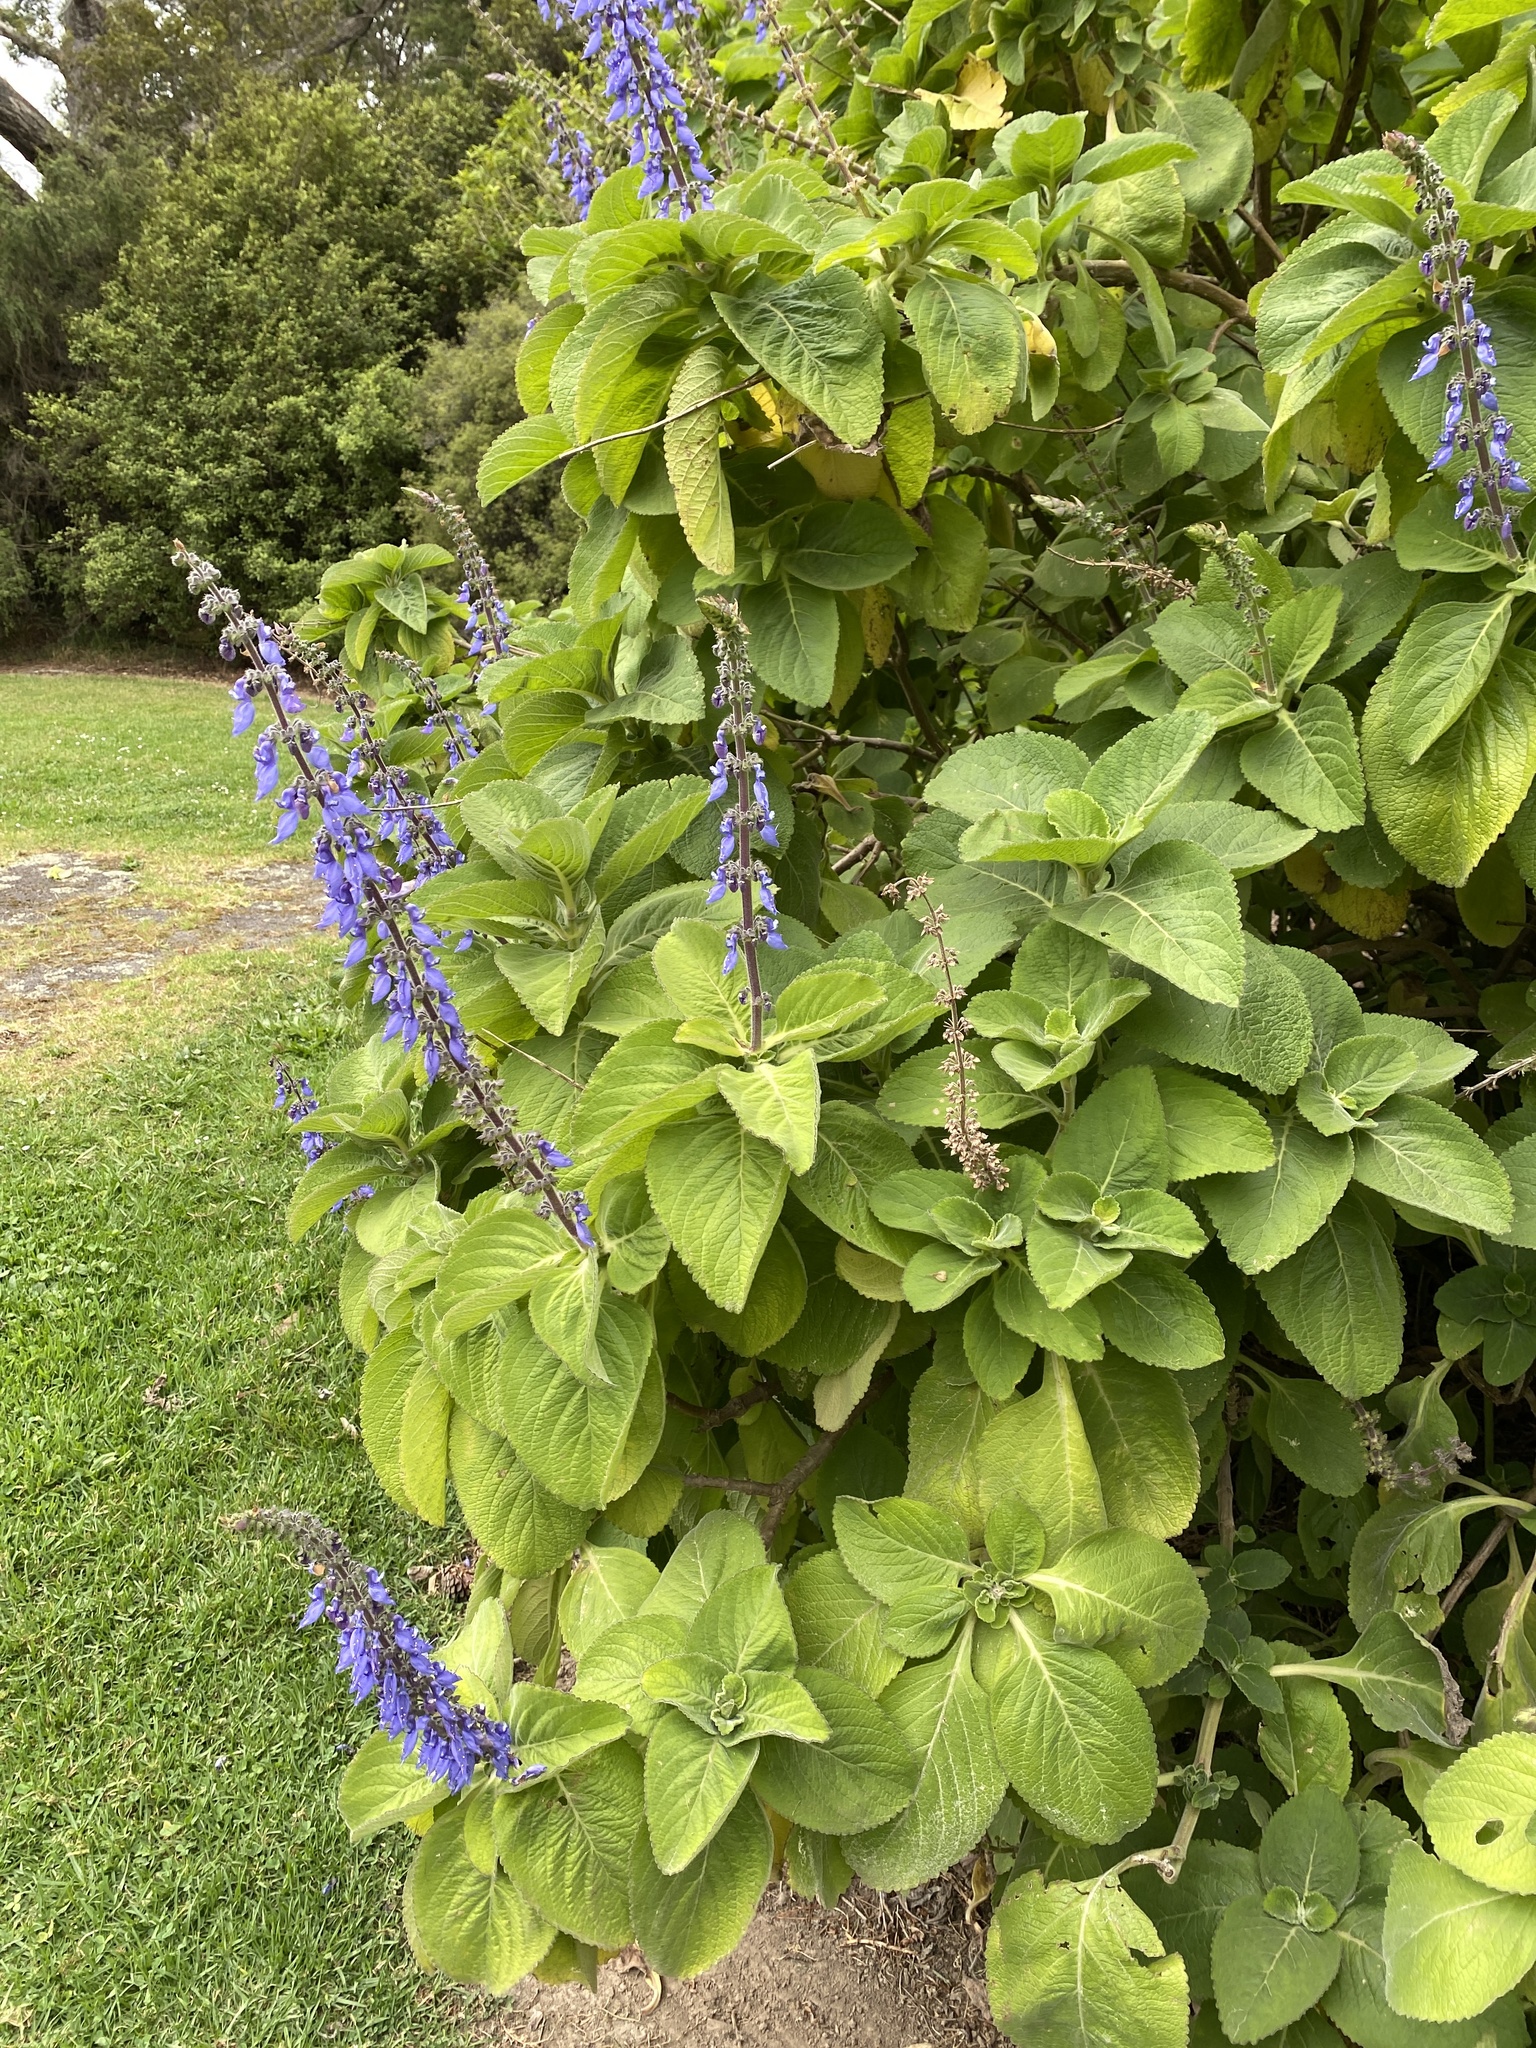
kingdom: Plantae
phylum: Tracheophyta
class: Magnoliopsida
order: Lamiales
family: Lamiaceae
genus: Coleus
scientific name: Coleus barbatus
